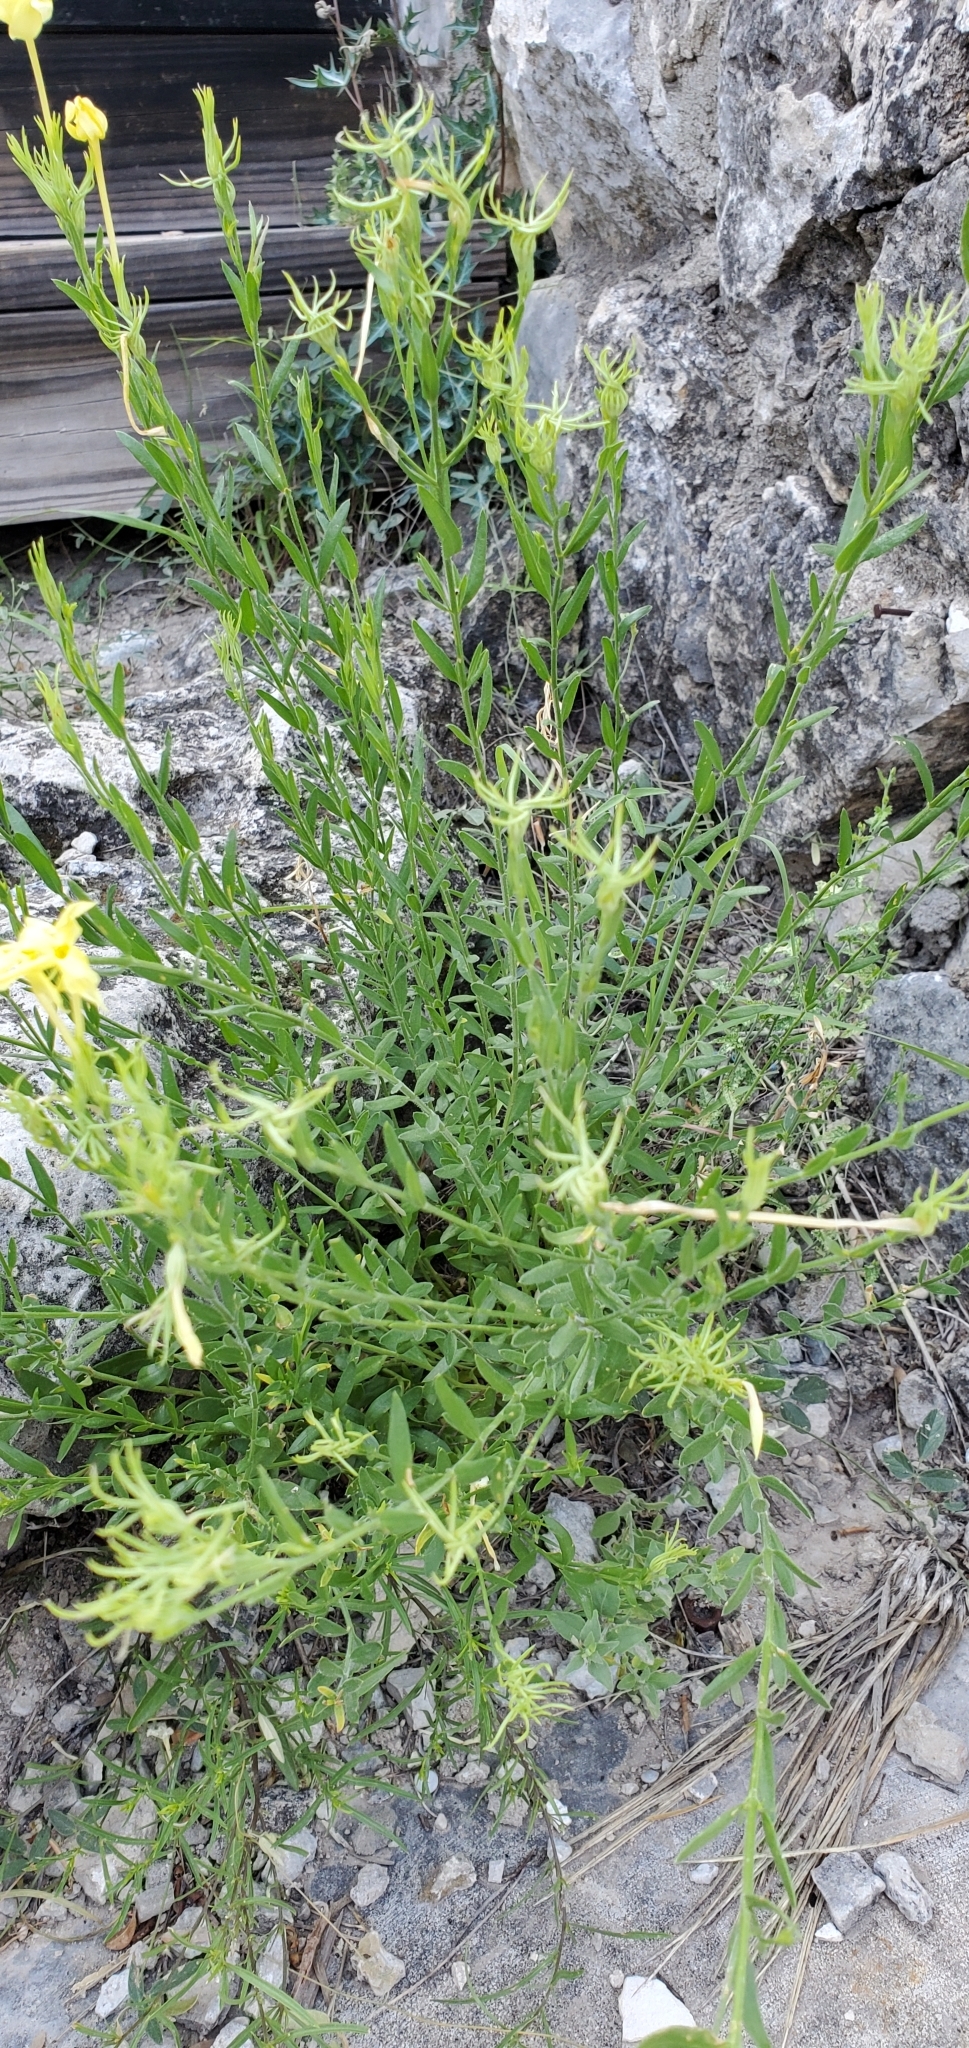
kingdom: Plantae
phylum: Tracheophyta
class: Magnoliopsida
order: Lamiales
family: Oleaceae
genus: Menodora
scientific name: Menodora longiflora
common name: Showy menodora
